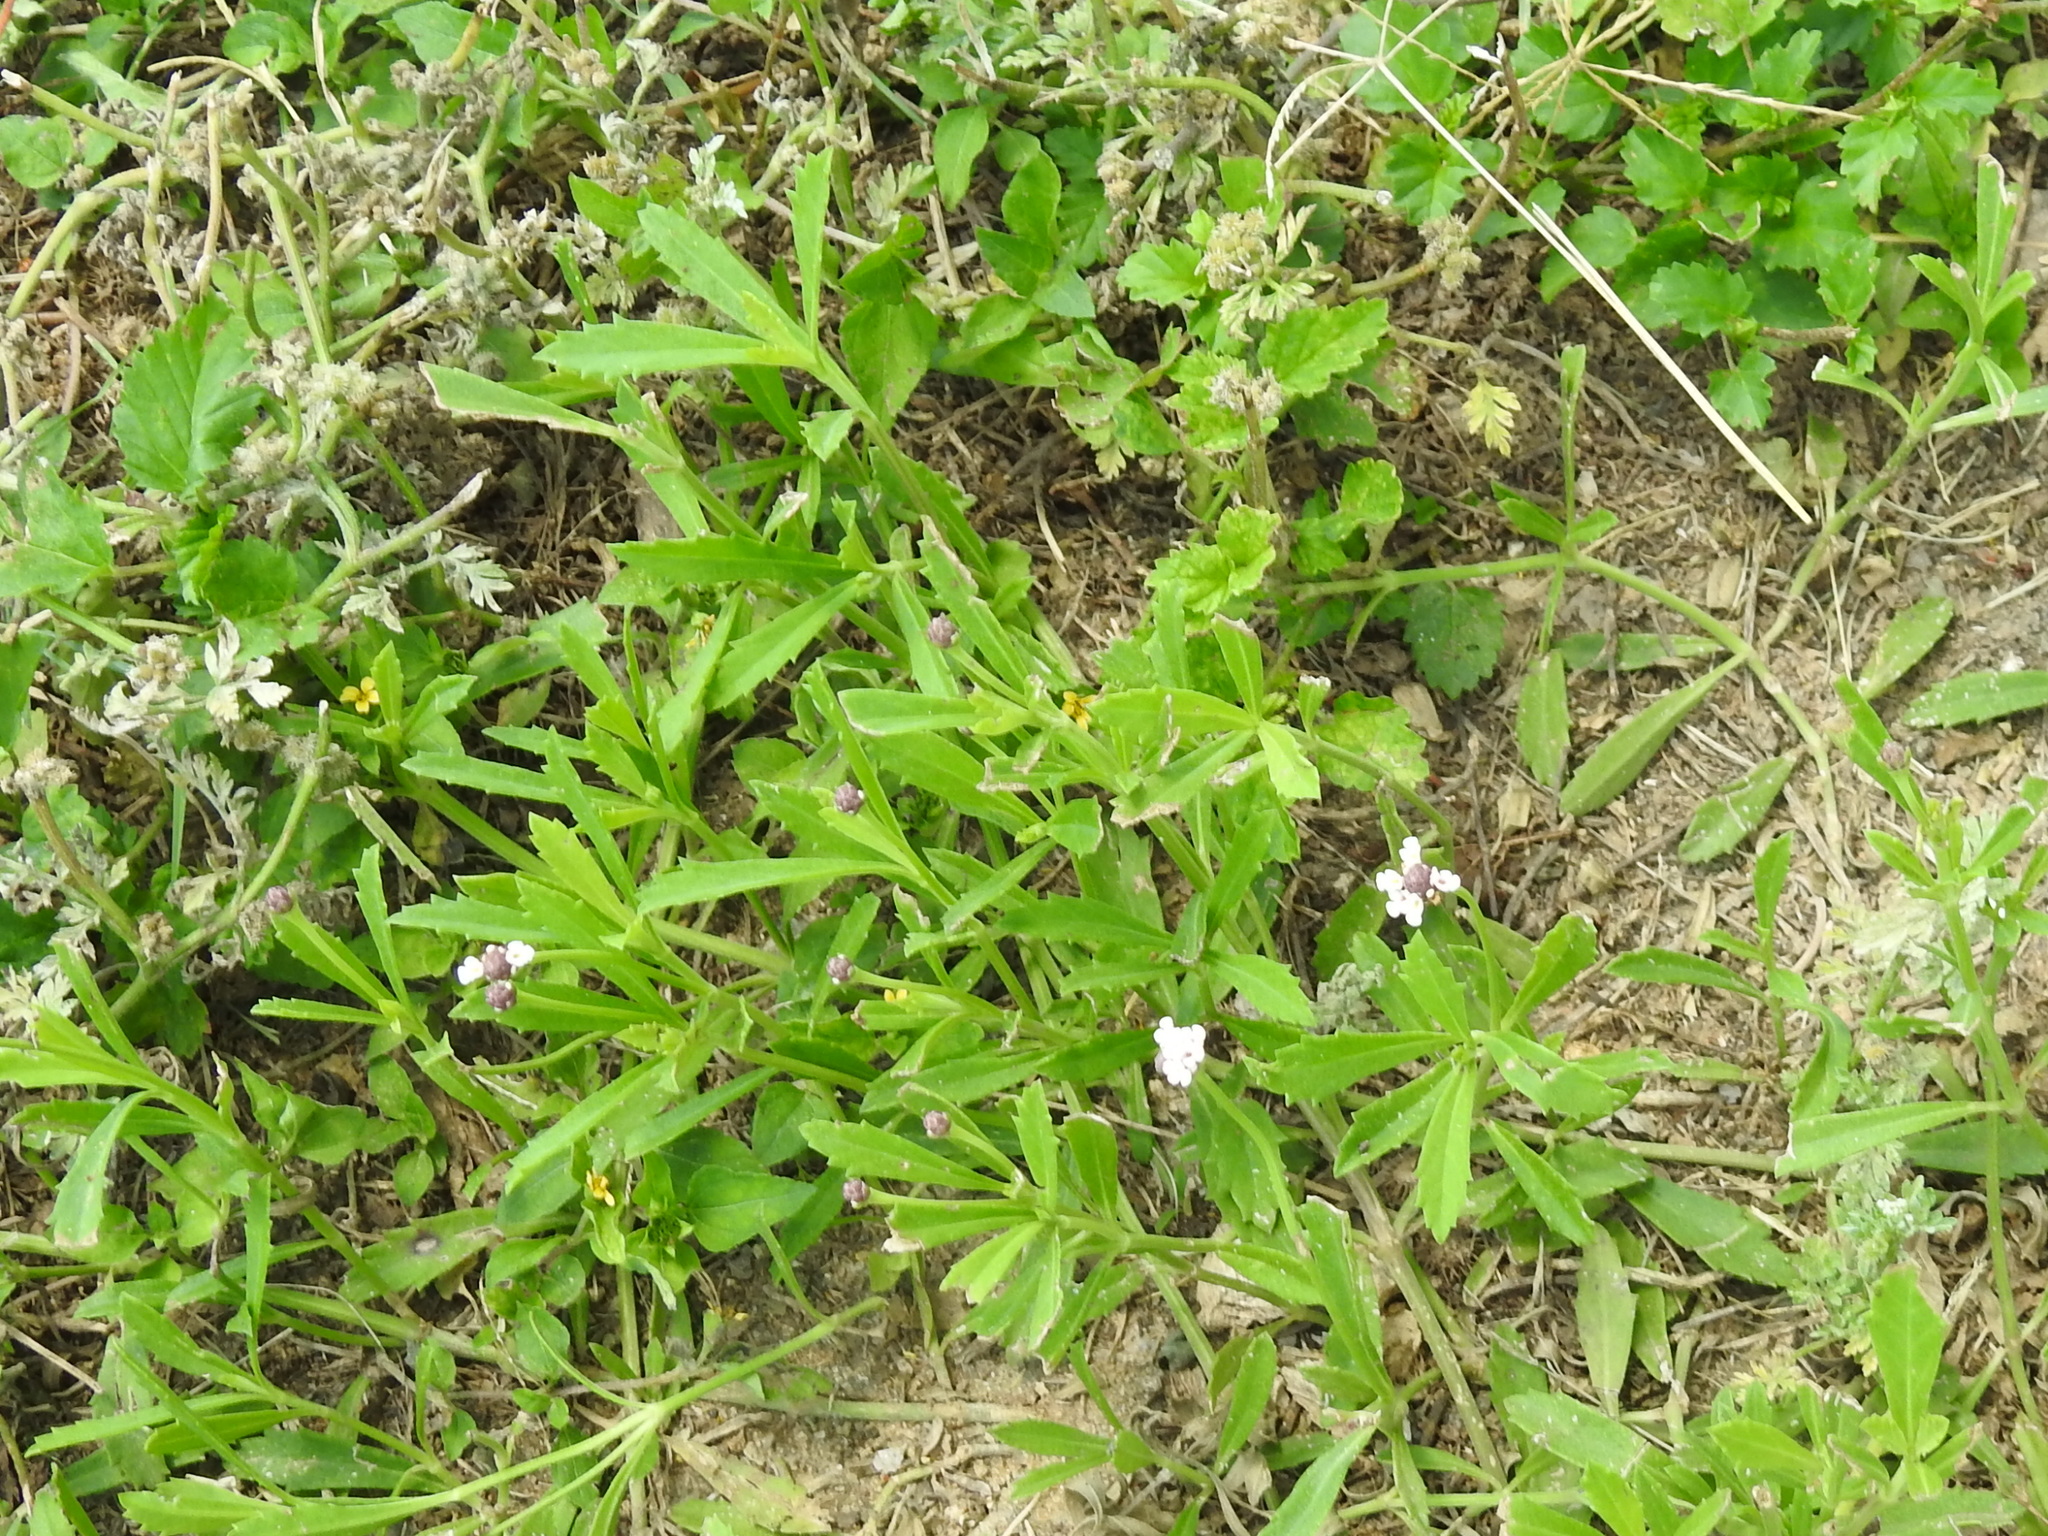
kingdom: Plantae
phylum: Tracheophyta
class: Magnoliopsida
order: Lamiales
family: Verbenaceae
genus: Phyla
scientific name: Phyla nodiflora
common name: Frogfruit
